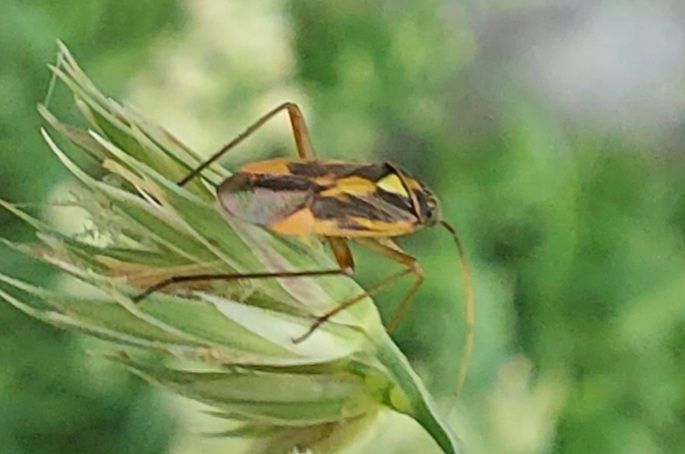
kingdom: Animalia
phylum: Arthropoda
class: Insecta
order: Hemiptera
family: Miridae
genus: Stenotus
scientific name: Stenotus binotatus
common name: Plant bug
